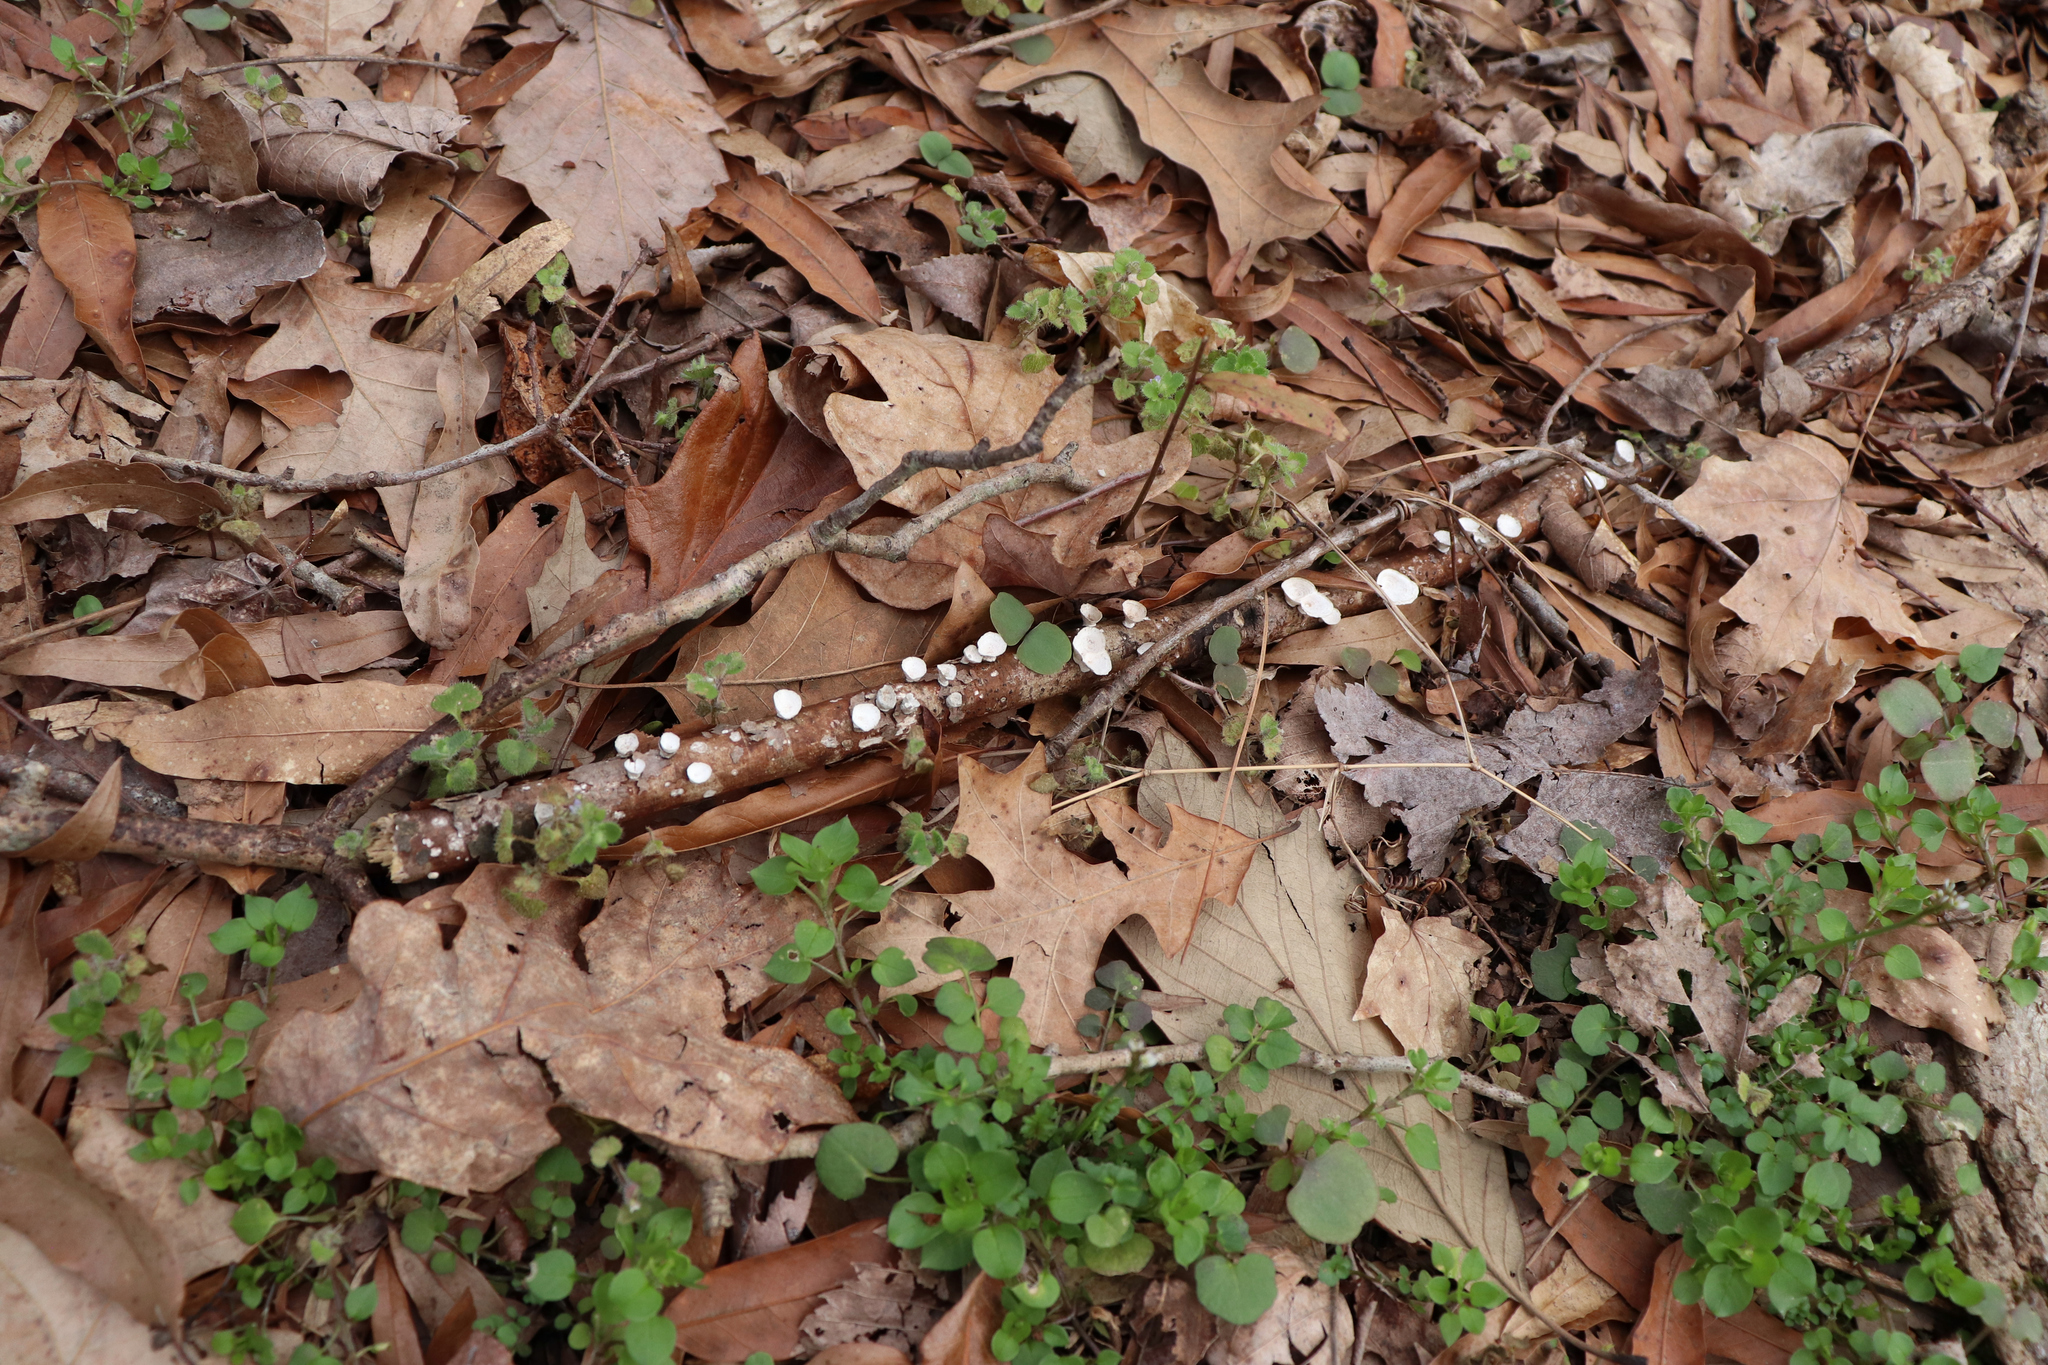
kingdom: Fungi
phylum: Basidiomycota
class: Agaricomycetes
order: Polyporales
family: Polyporaceae
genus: Poronidulus
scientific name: Poronidulus conchifer
